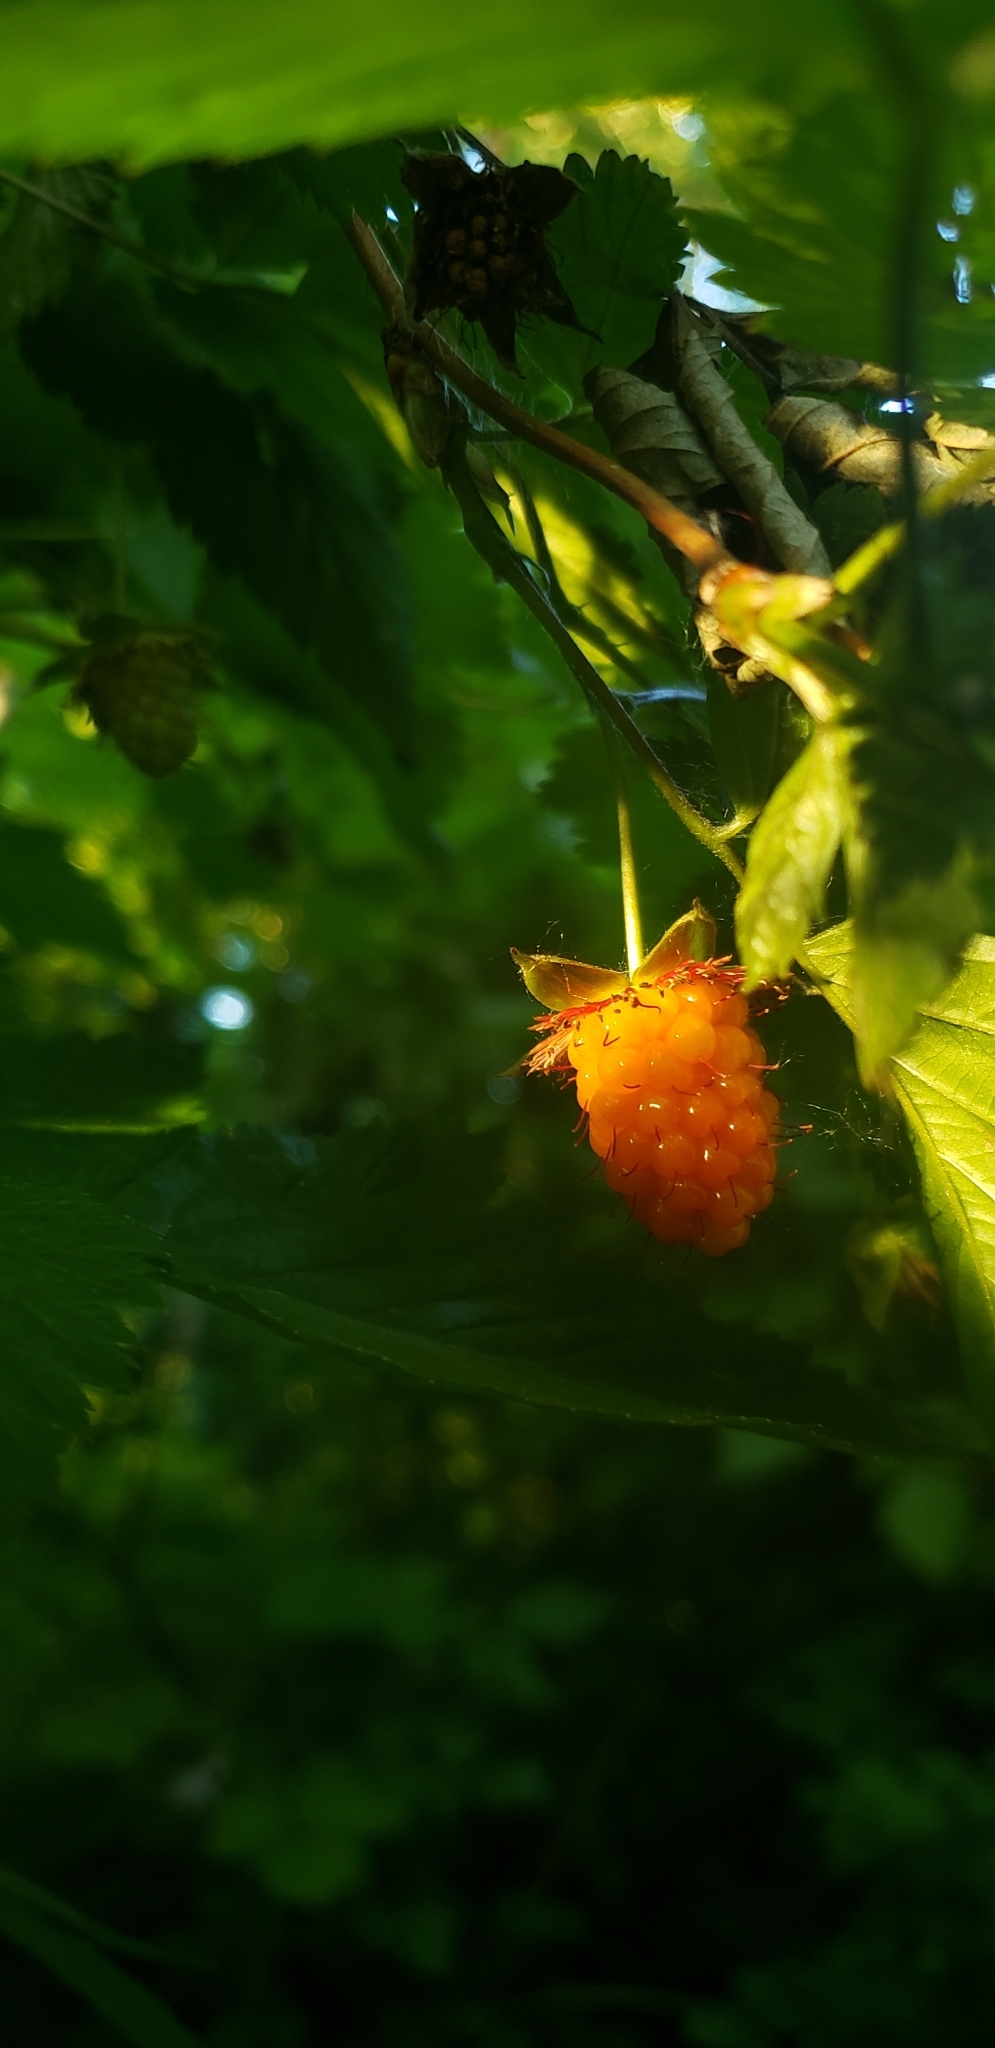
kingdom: Plantae
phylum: Tracheophyta
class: Magnoliopsida
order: Rosales
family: Rosaceae
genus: Rubus
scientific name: Rubus spectabilis
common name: Salmonberry
